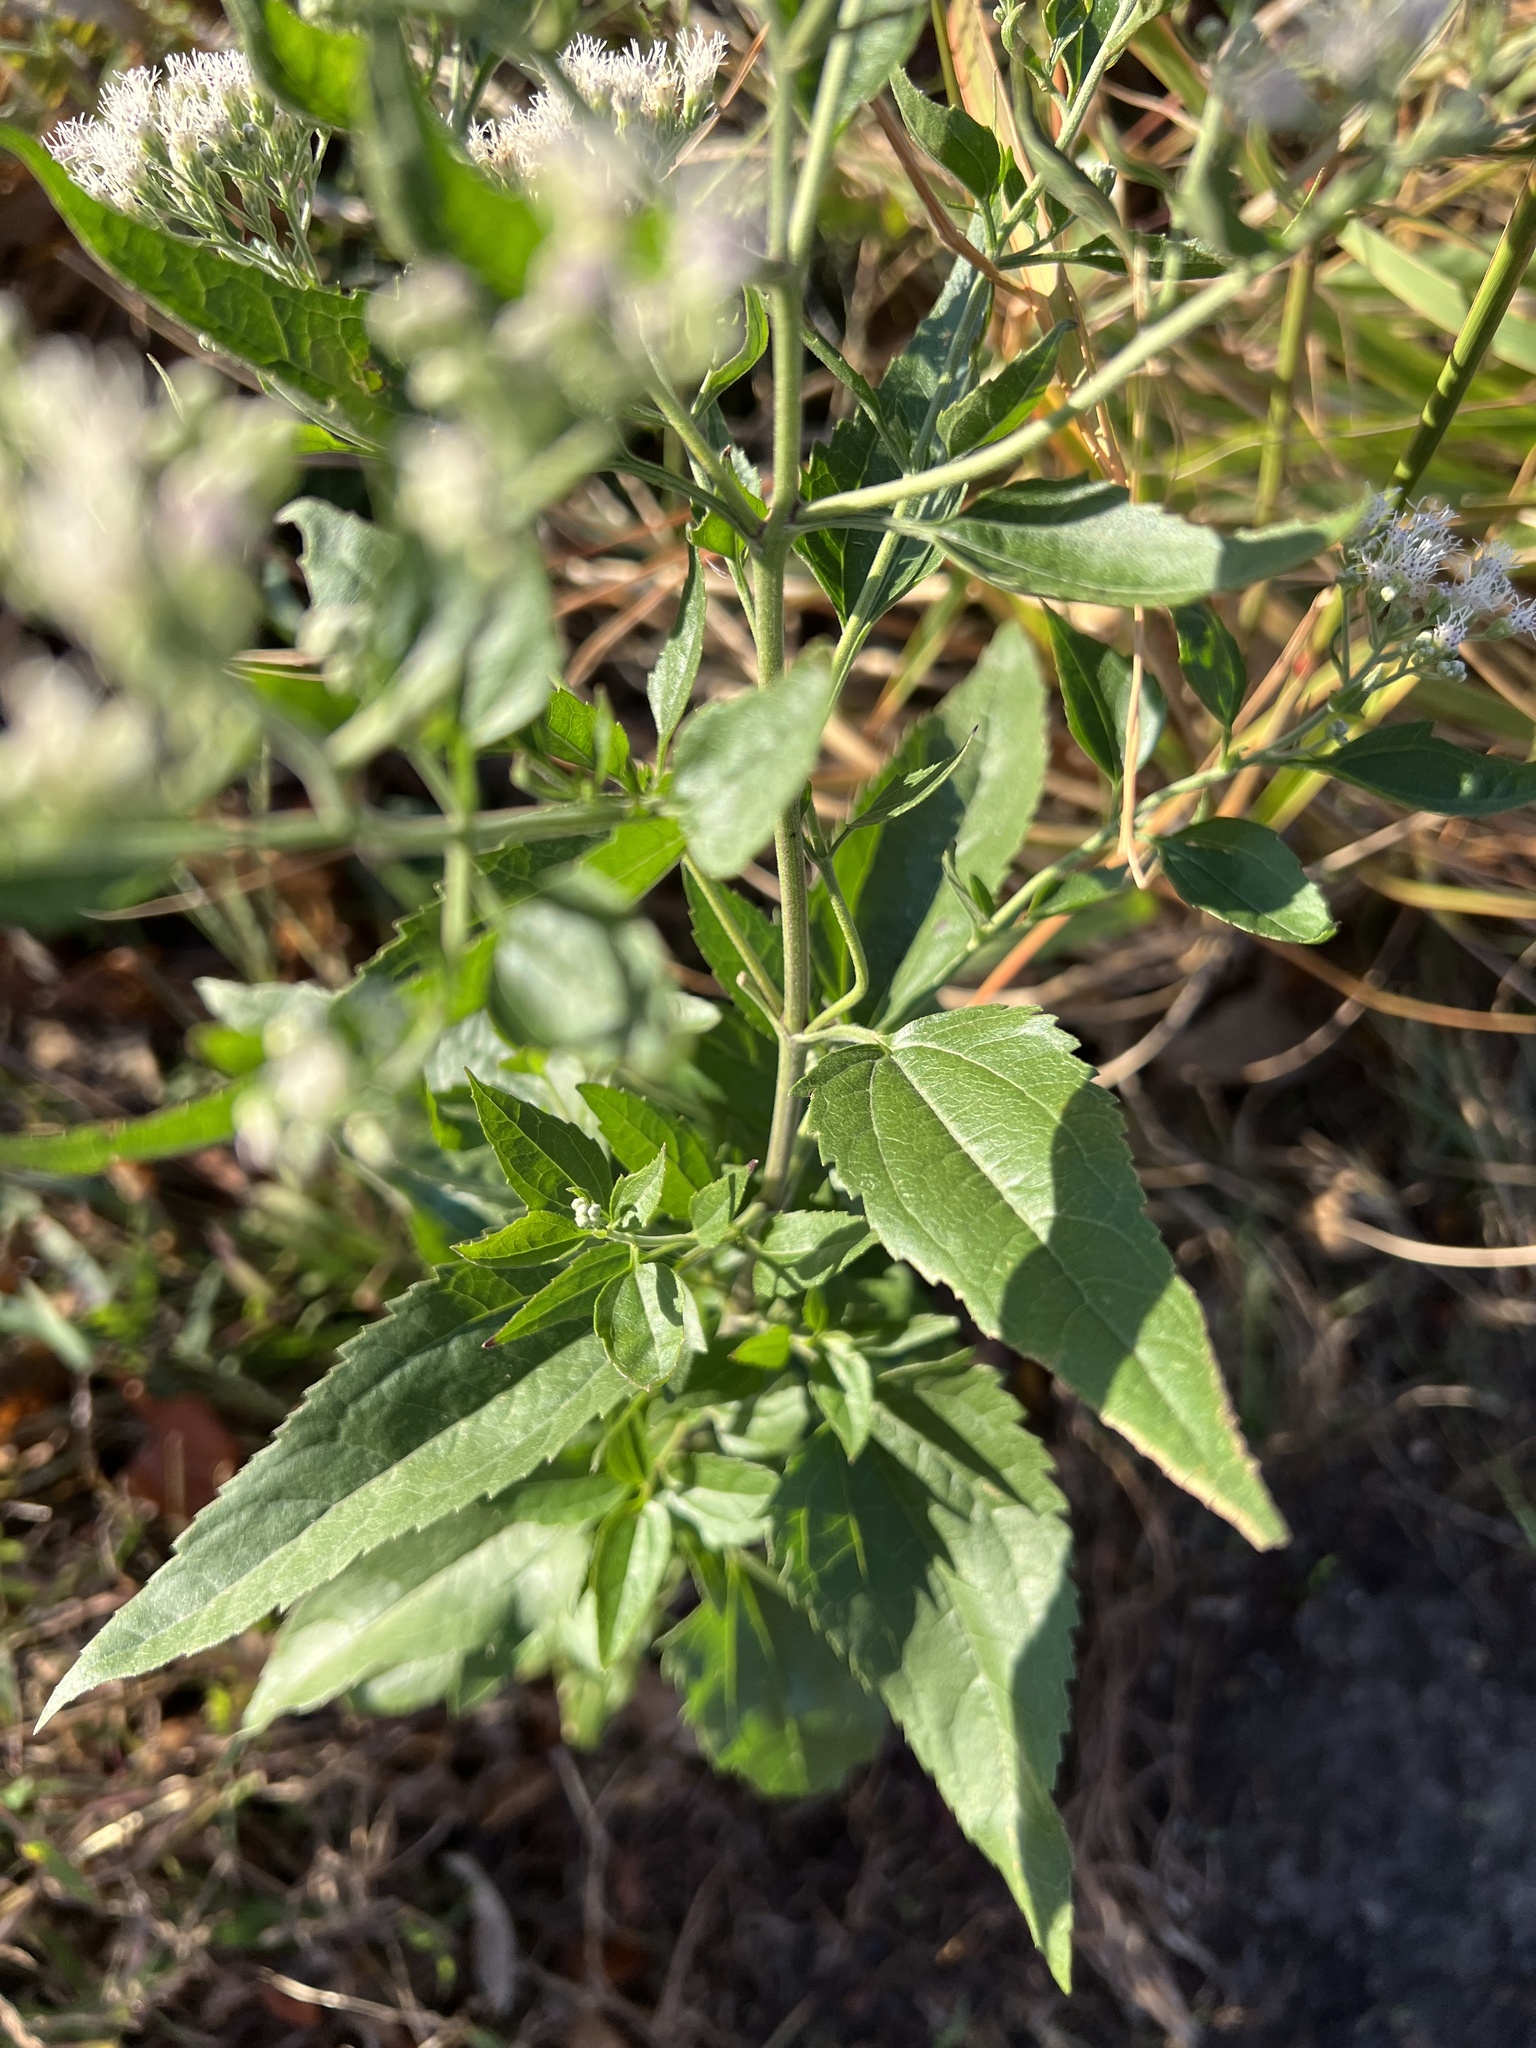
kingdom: Plantae
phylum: Tracheophyta
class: Magnoliopsida
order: Asterales
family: Asteraceae
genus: Eupatorium
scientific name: Eupatorium serotinum
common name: Late boneset
